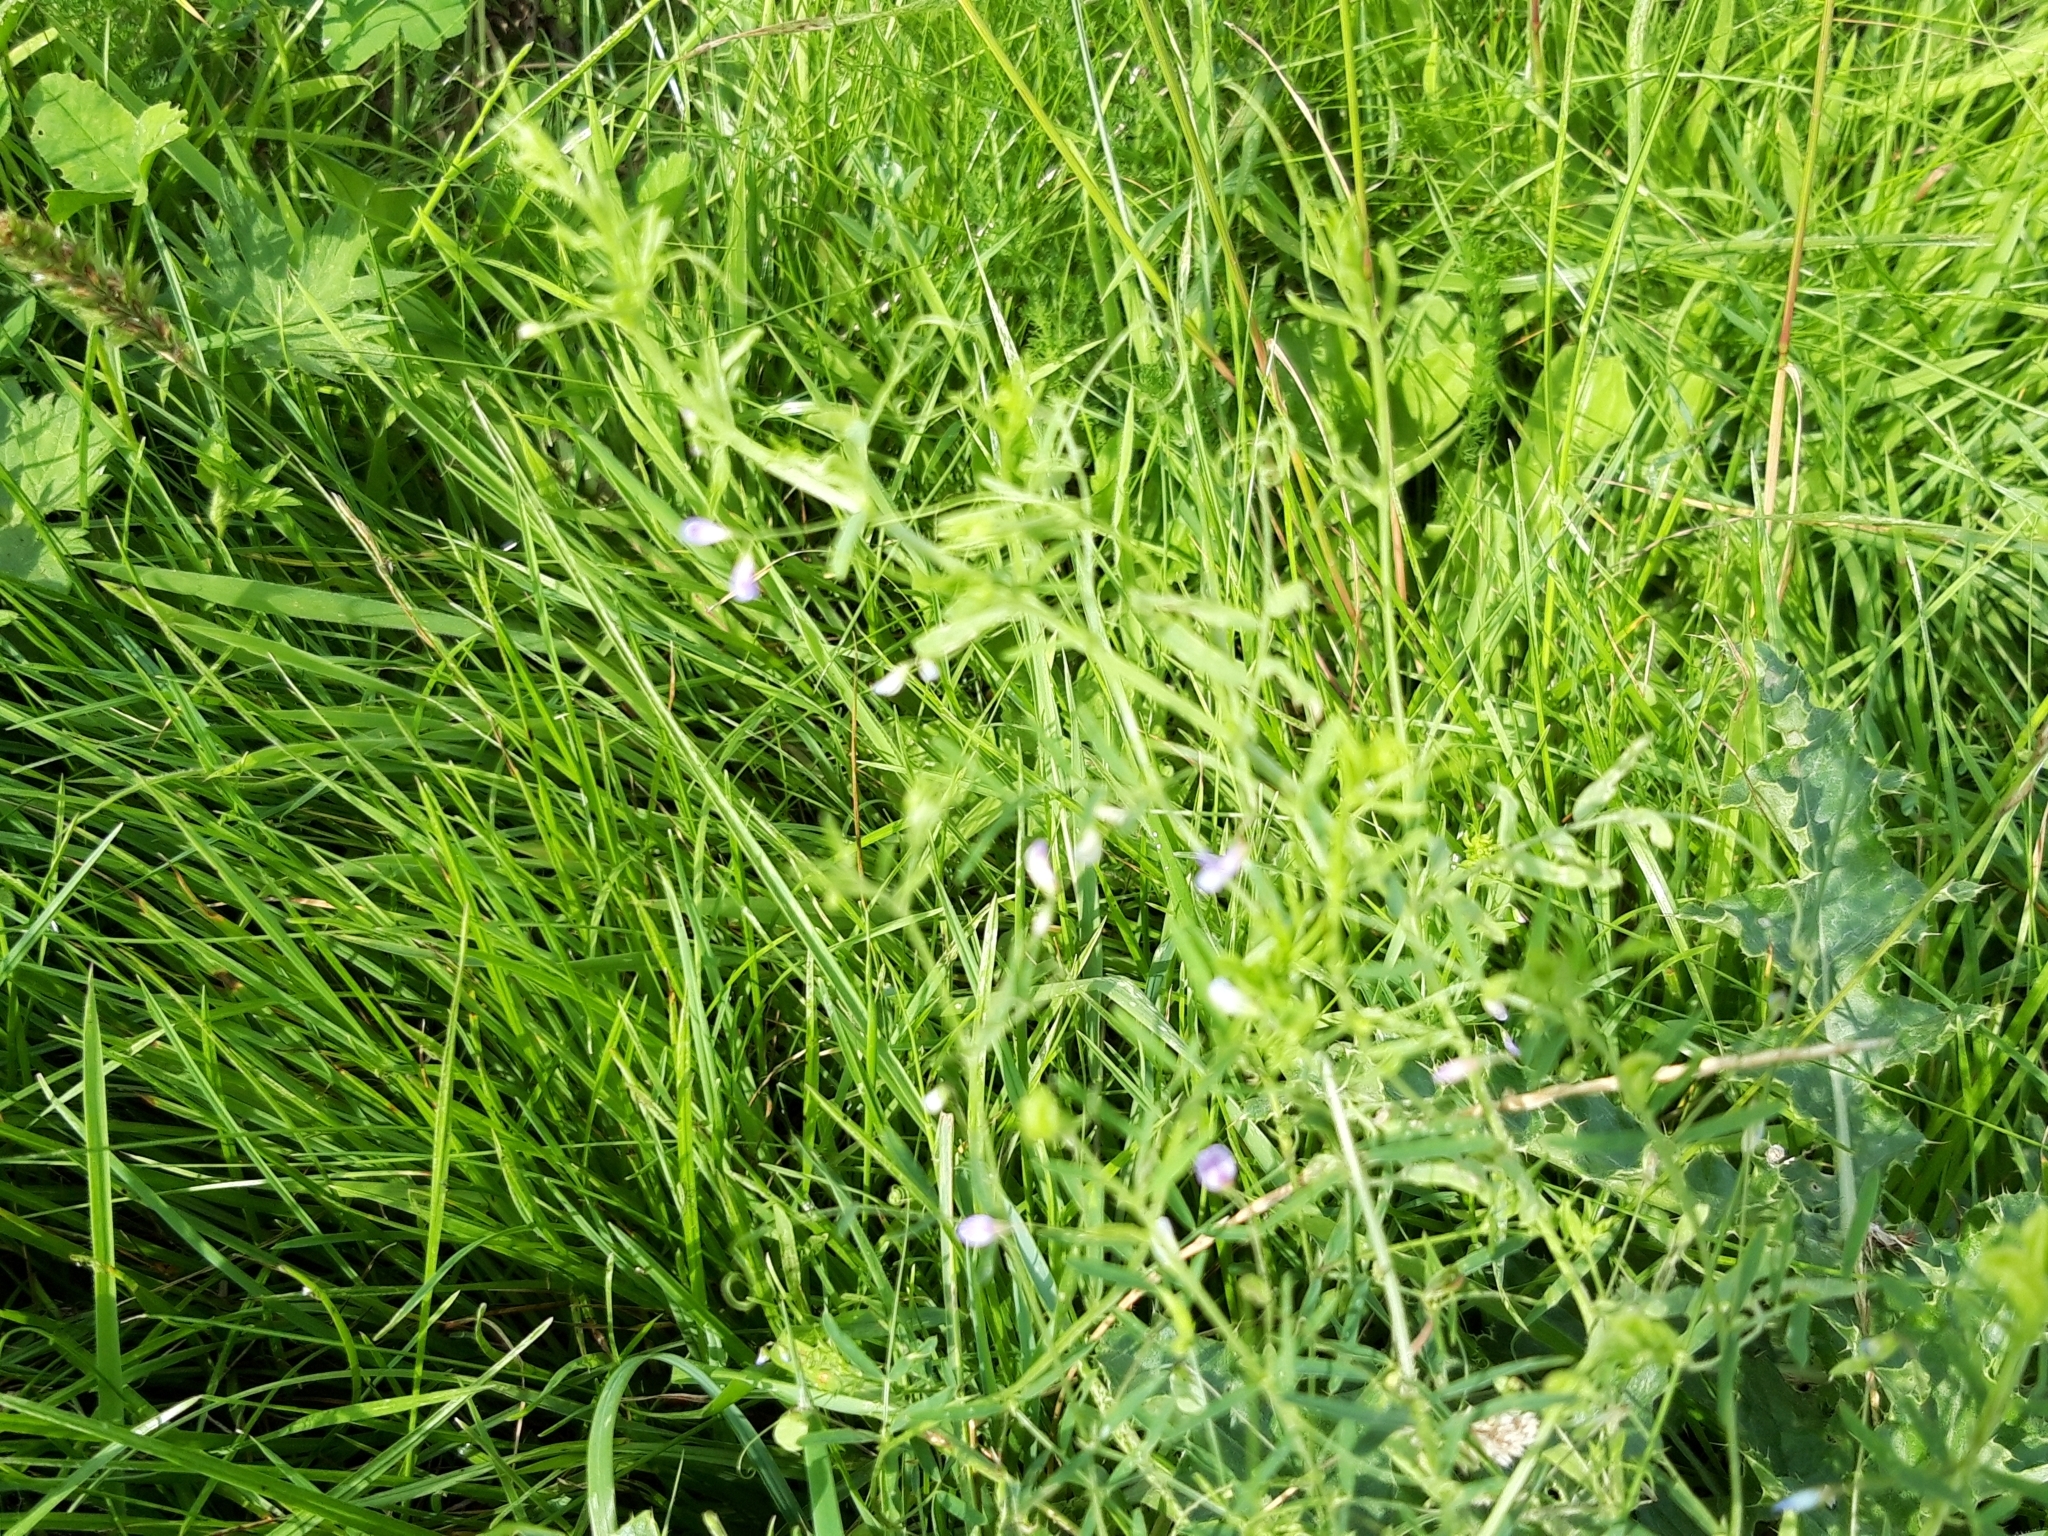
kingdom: Plantae
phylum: Tracheophyta
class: Magnoliopsida
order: Fabales
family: Fabaceae
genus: Vicia
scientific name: Vicia tetrasperma
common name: Smooth tare
